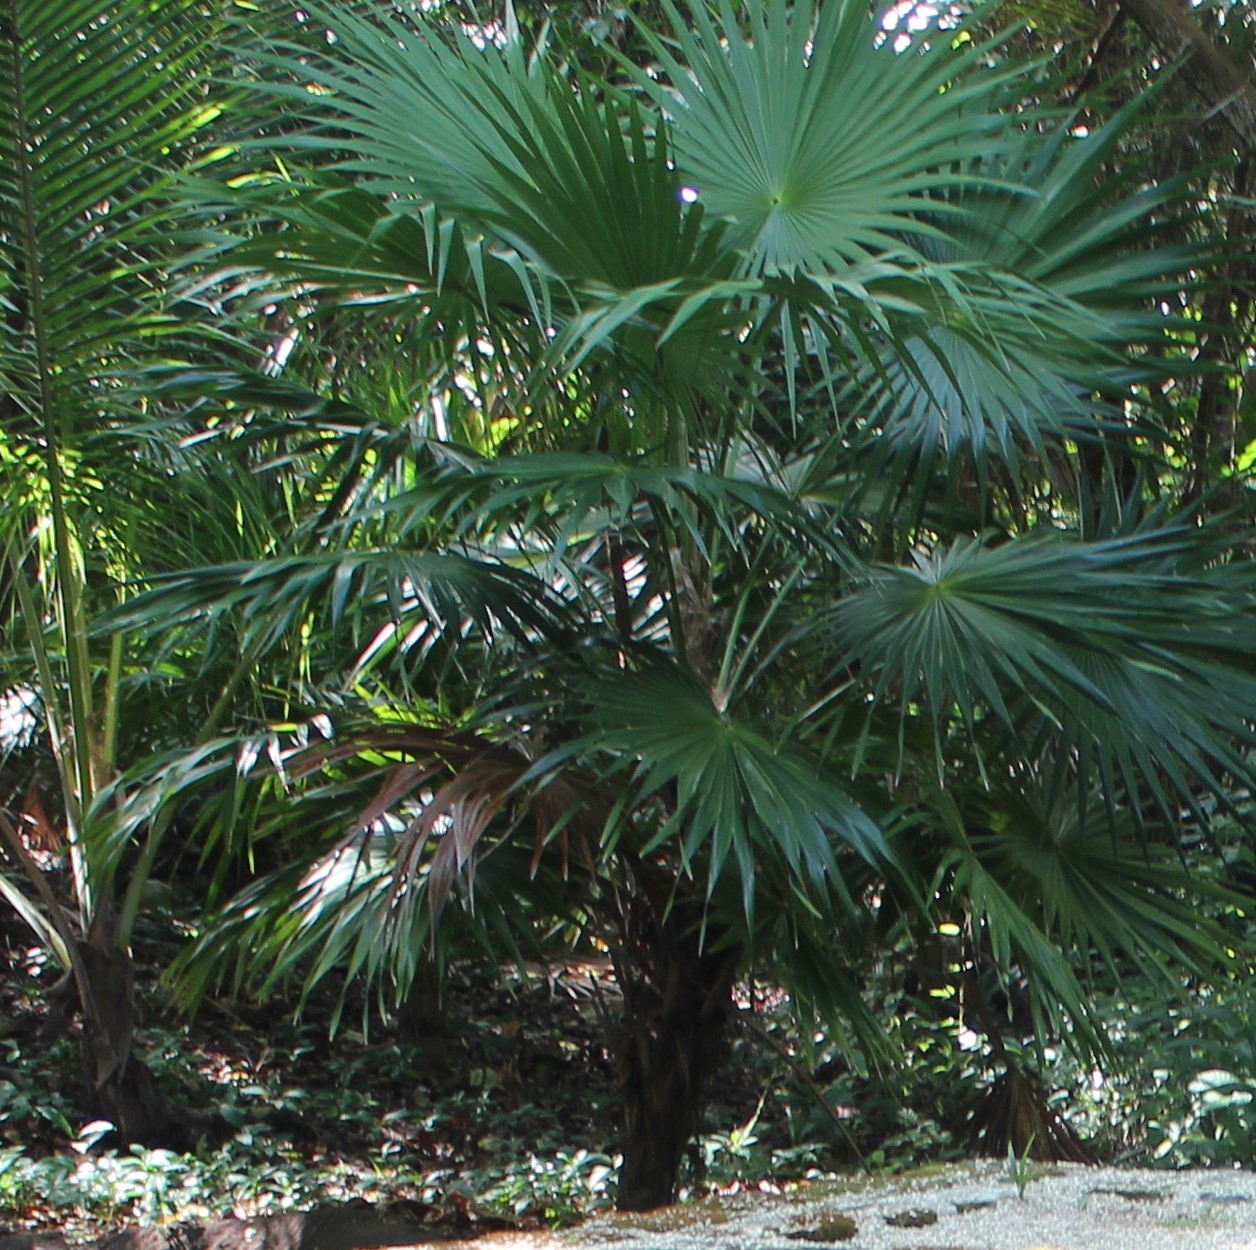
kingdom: Plantae
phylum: Tracheophyta
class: Liliopsida
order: Arecales
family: Arecaceae
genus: Thrinax
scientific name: Thrinax radiata
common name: Florida thatch
